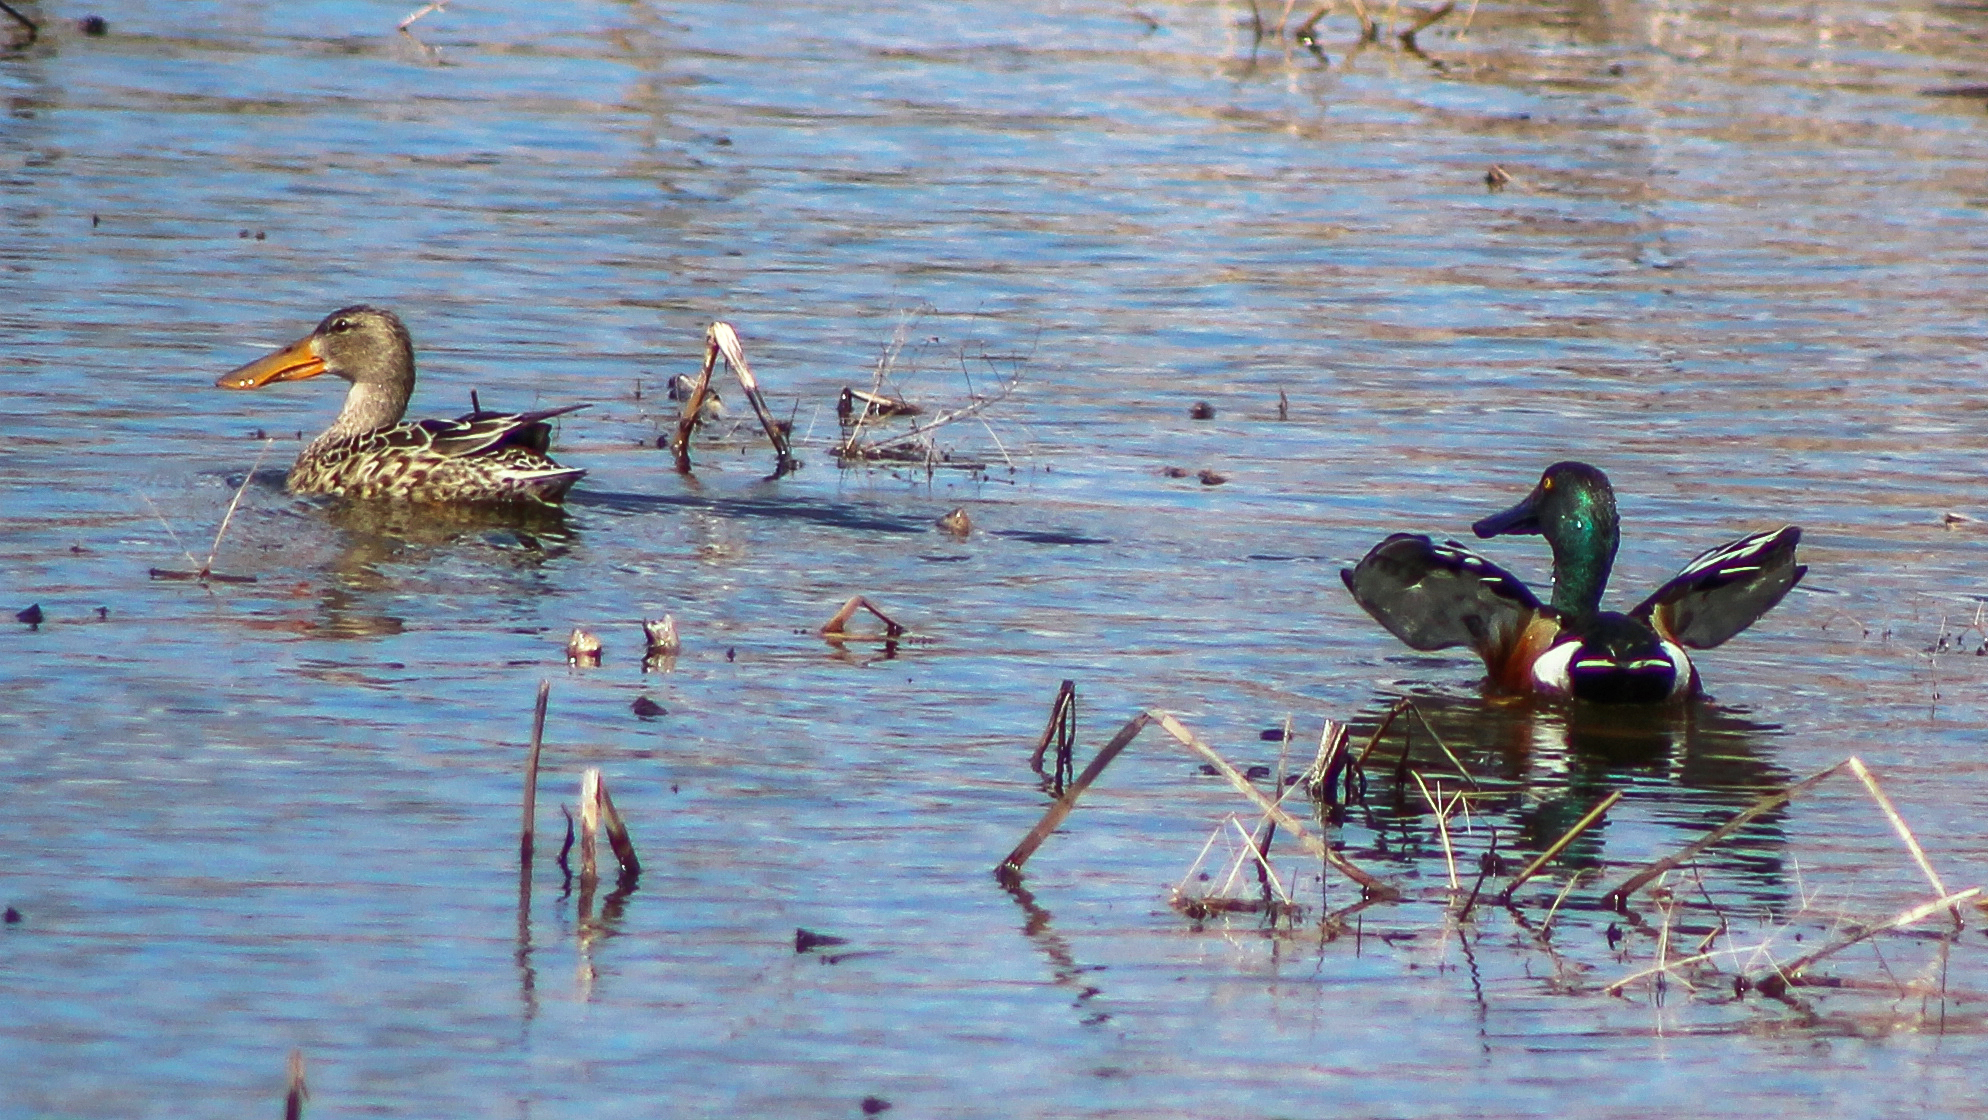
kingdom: Animalia
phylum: Chordata
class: Aves
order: Anseriformes
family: Anatidae
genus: Spatula
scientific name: Spatula clypeata
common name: Northern shoveler
